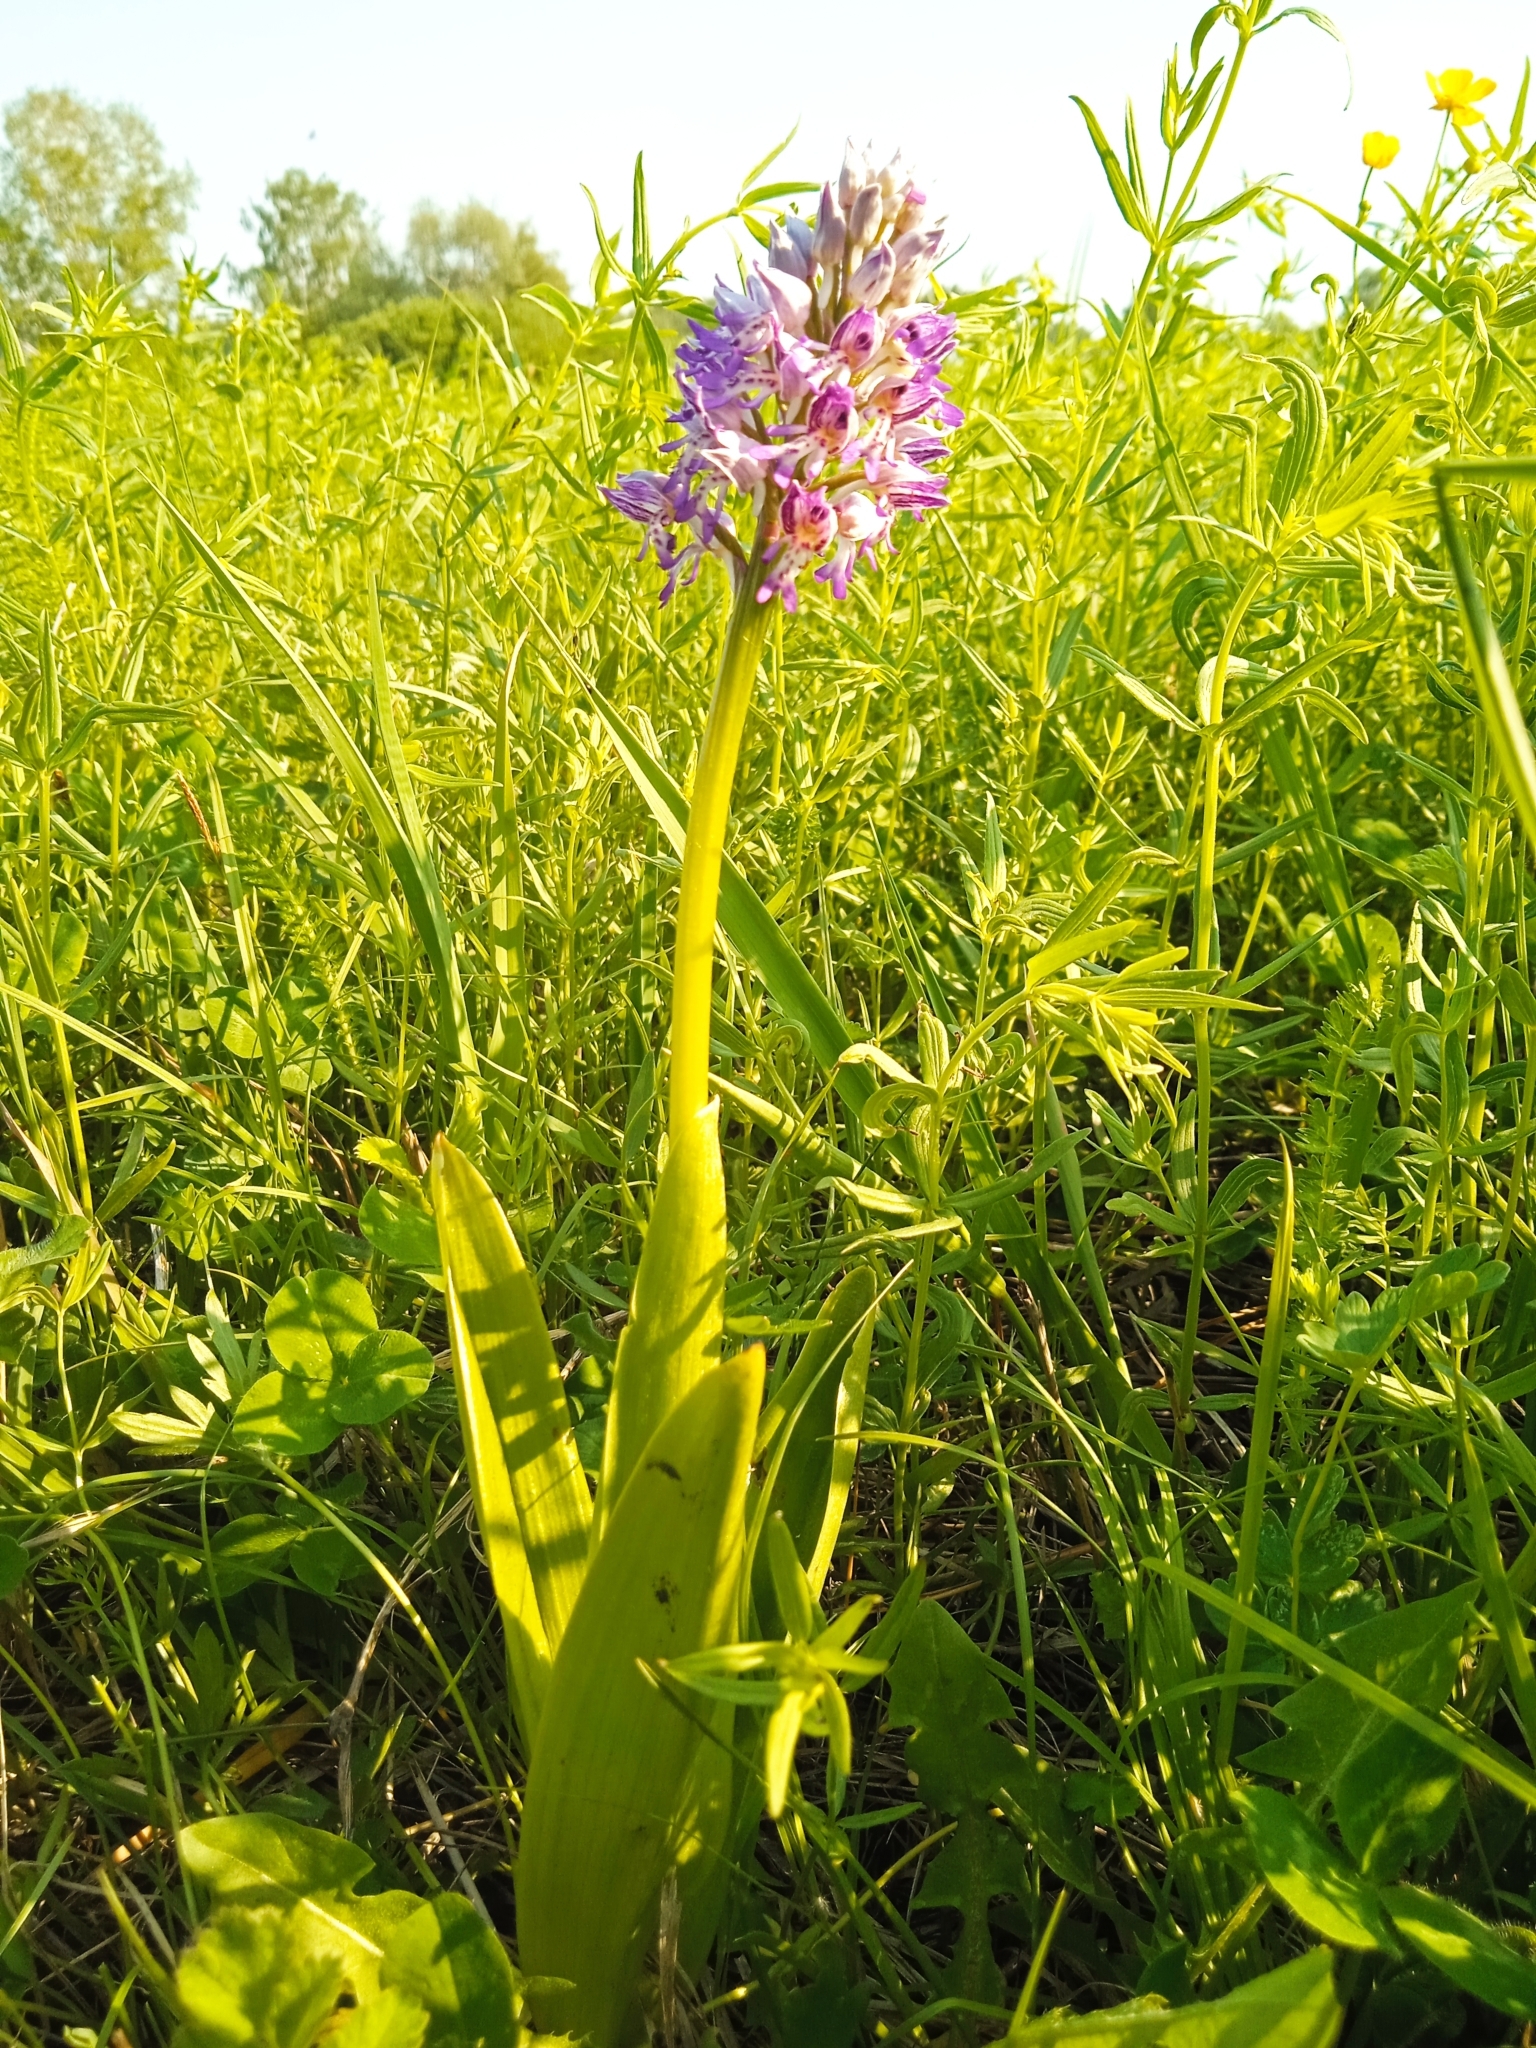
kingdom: Plantae
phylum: Tracheophyta
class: Liliopsida
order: Asparagales
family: Orchidaceae
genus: Orchis
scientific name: Orchis militaris
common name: Military orchid
